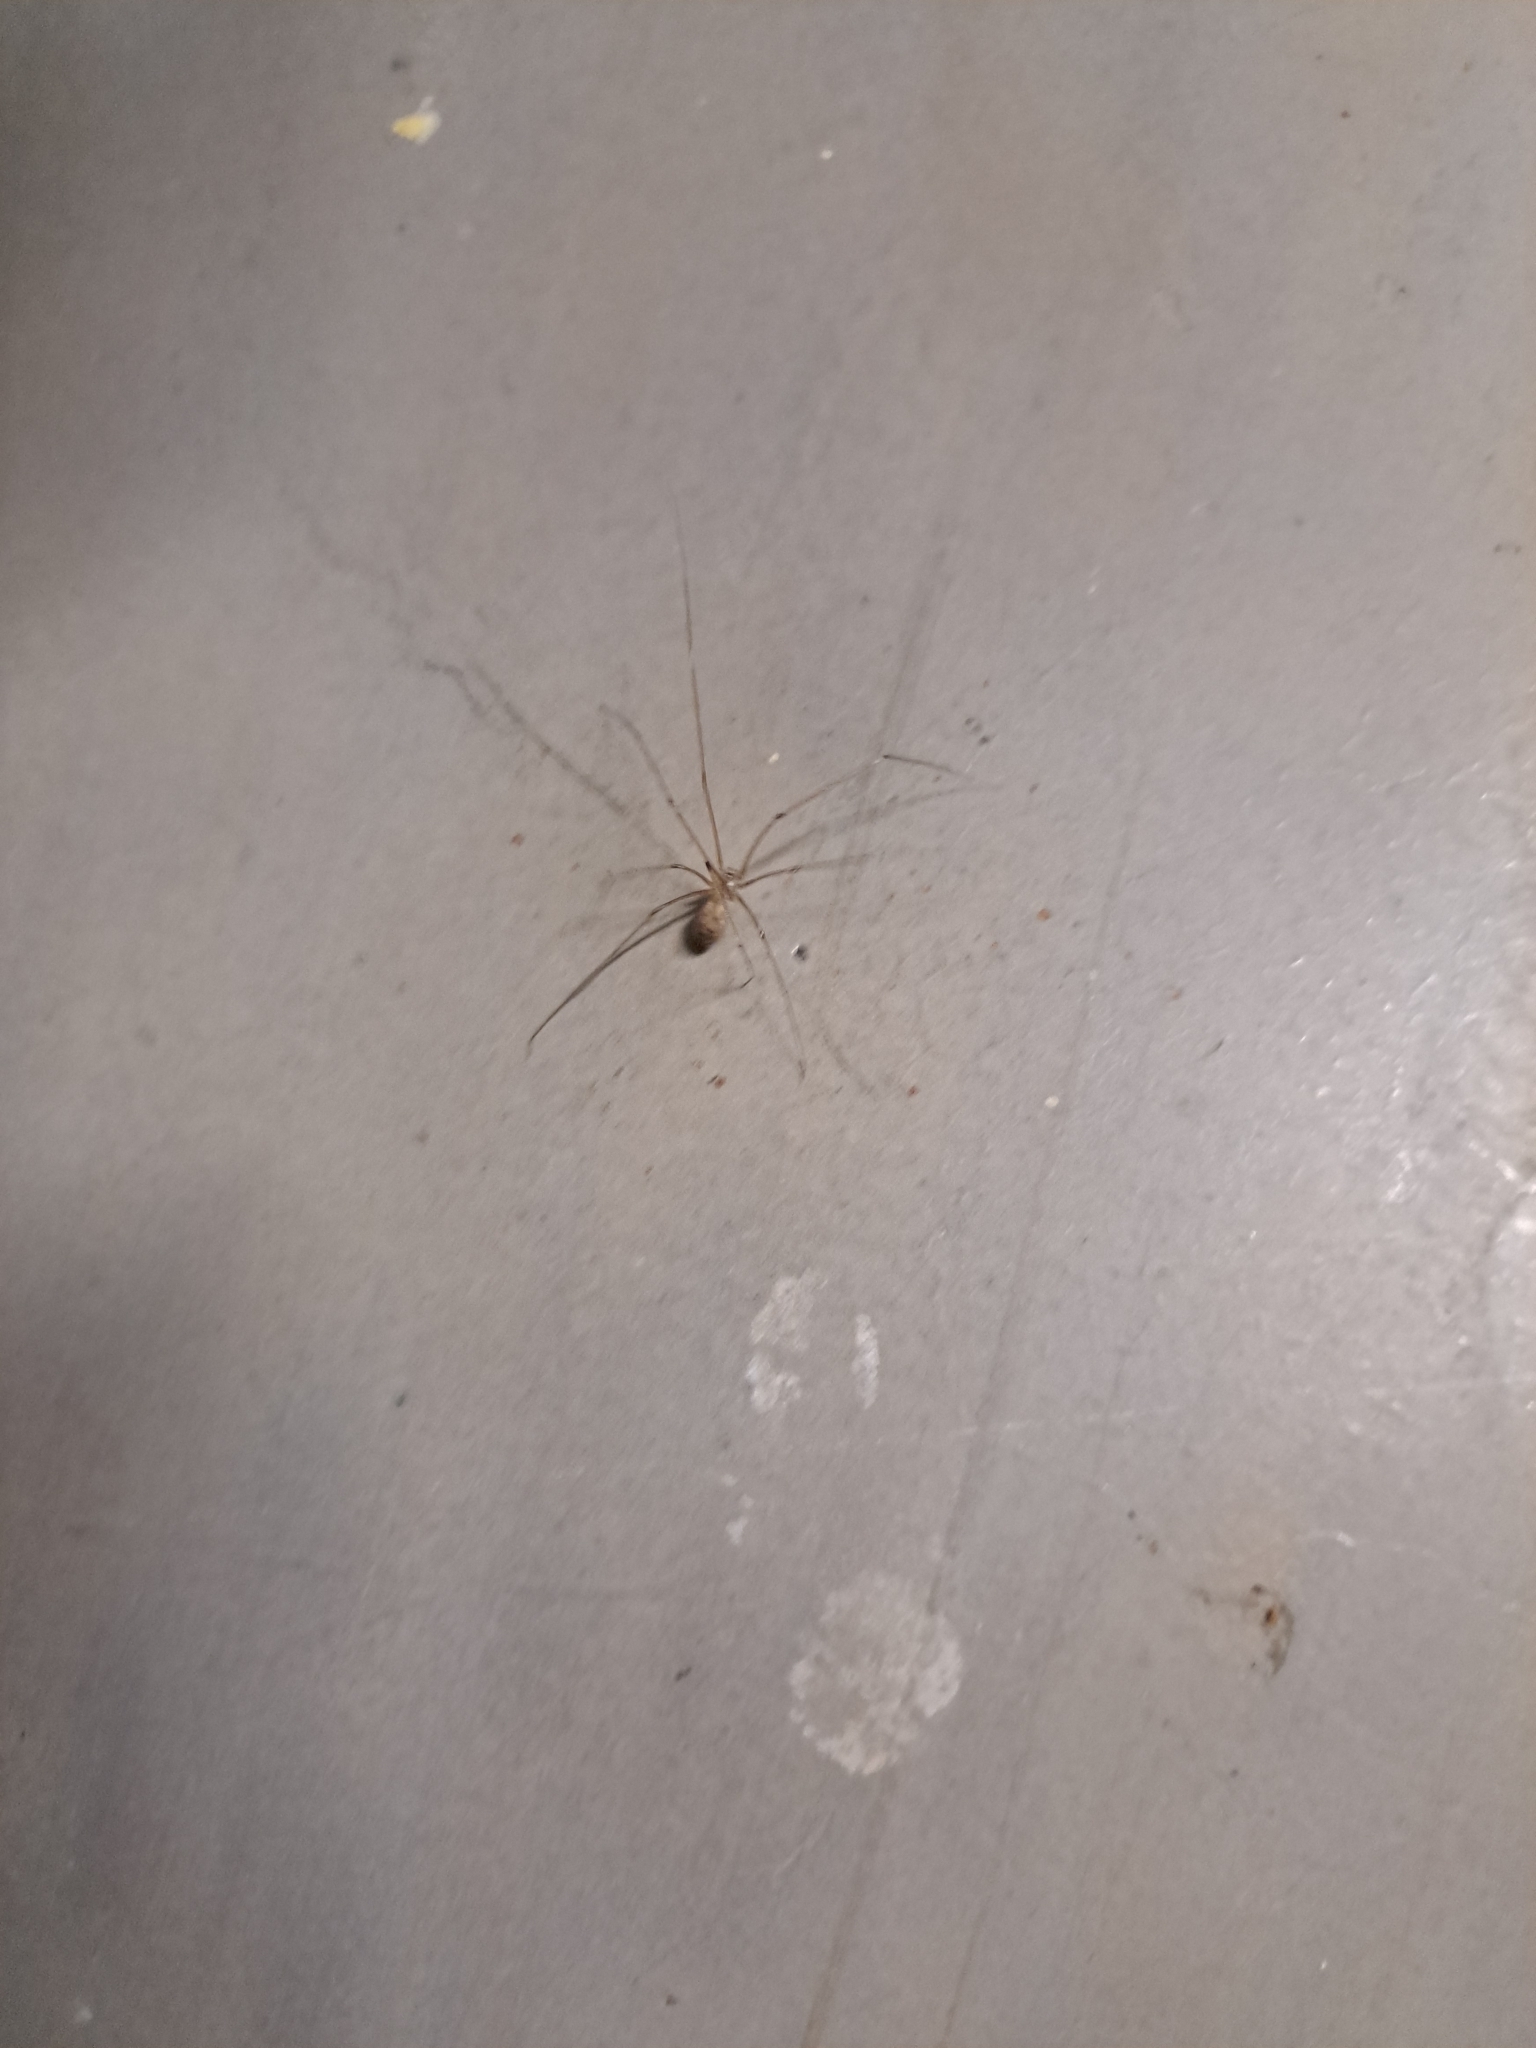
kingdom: Animalia
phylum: Arthropoda
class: Arachnida
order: Araneae
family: Pholcidae
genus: Pholcus
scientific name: Pholcus phalangioides
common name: Longbodied cellar spider
